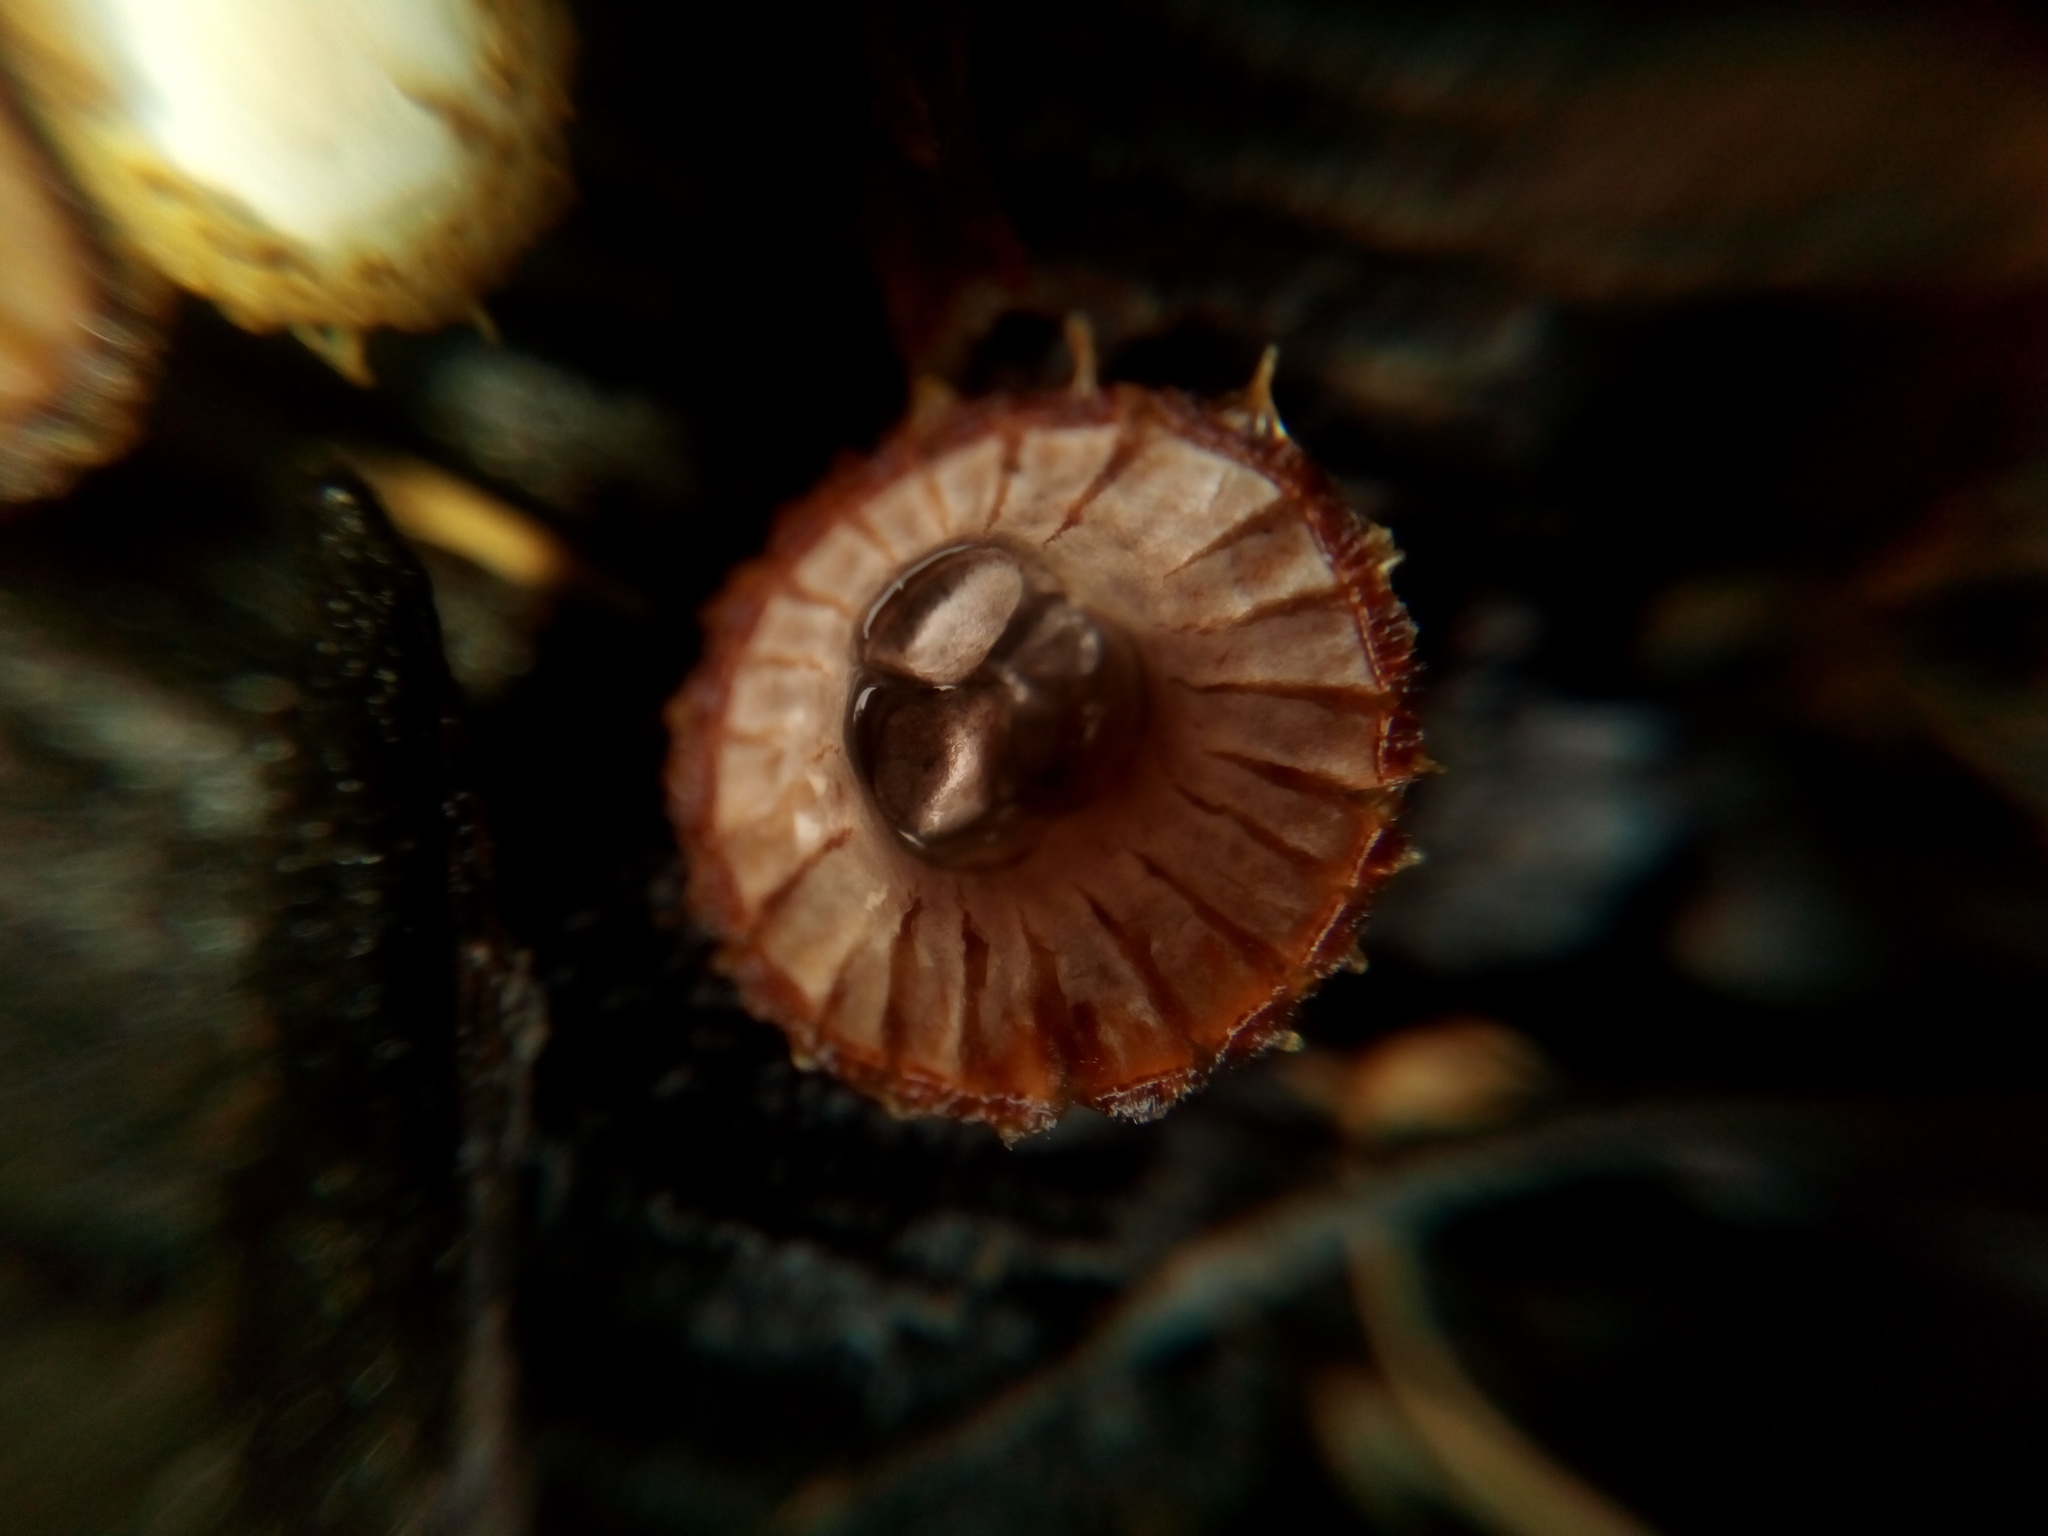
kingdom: Fungi
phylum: Basidiomycota
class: Agaricomycetes
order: Agaricales
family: Agaricaceae
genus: Cyathus
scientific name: Cyathus striatus
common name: Fluted bird's nest
